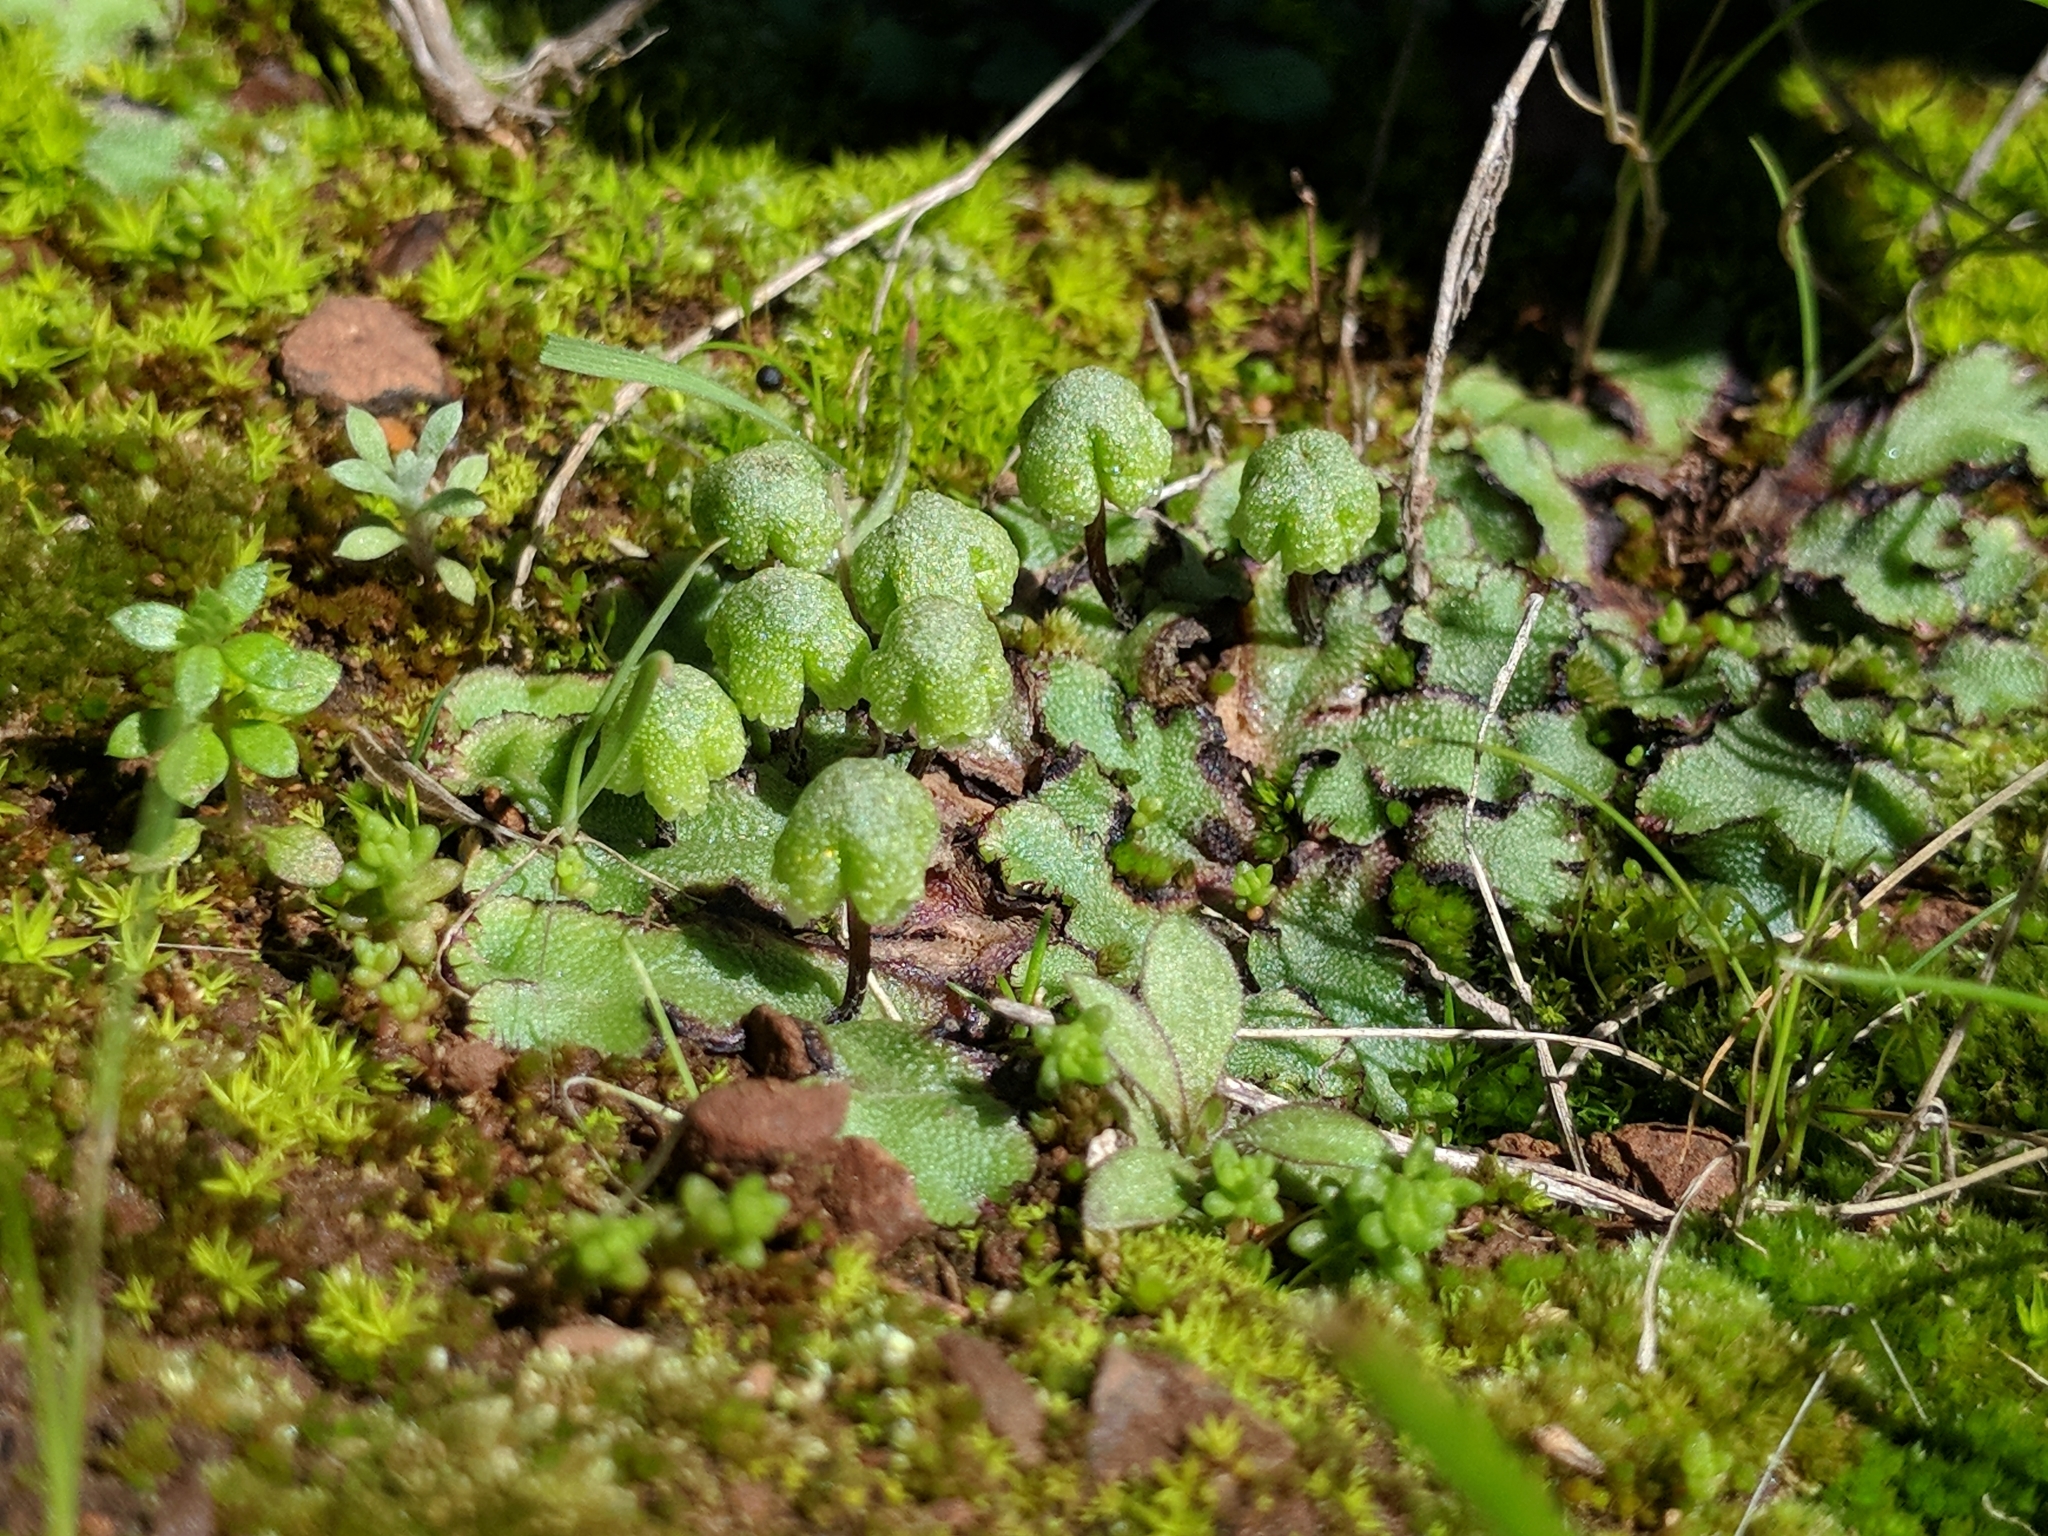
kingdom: Plantae
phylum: Marchantiophyta
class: Marchantiopsida
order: Marchantiales
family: Aytoniaceae
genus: Asterella
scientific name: Asterella californica
